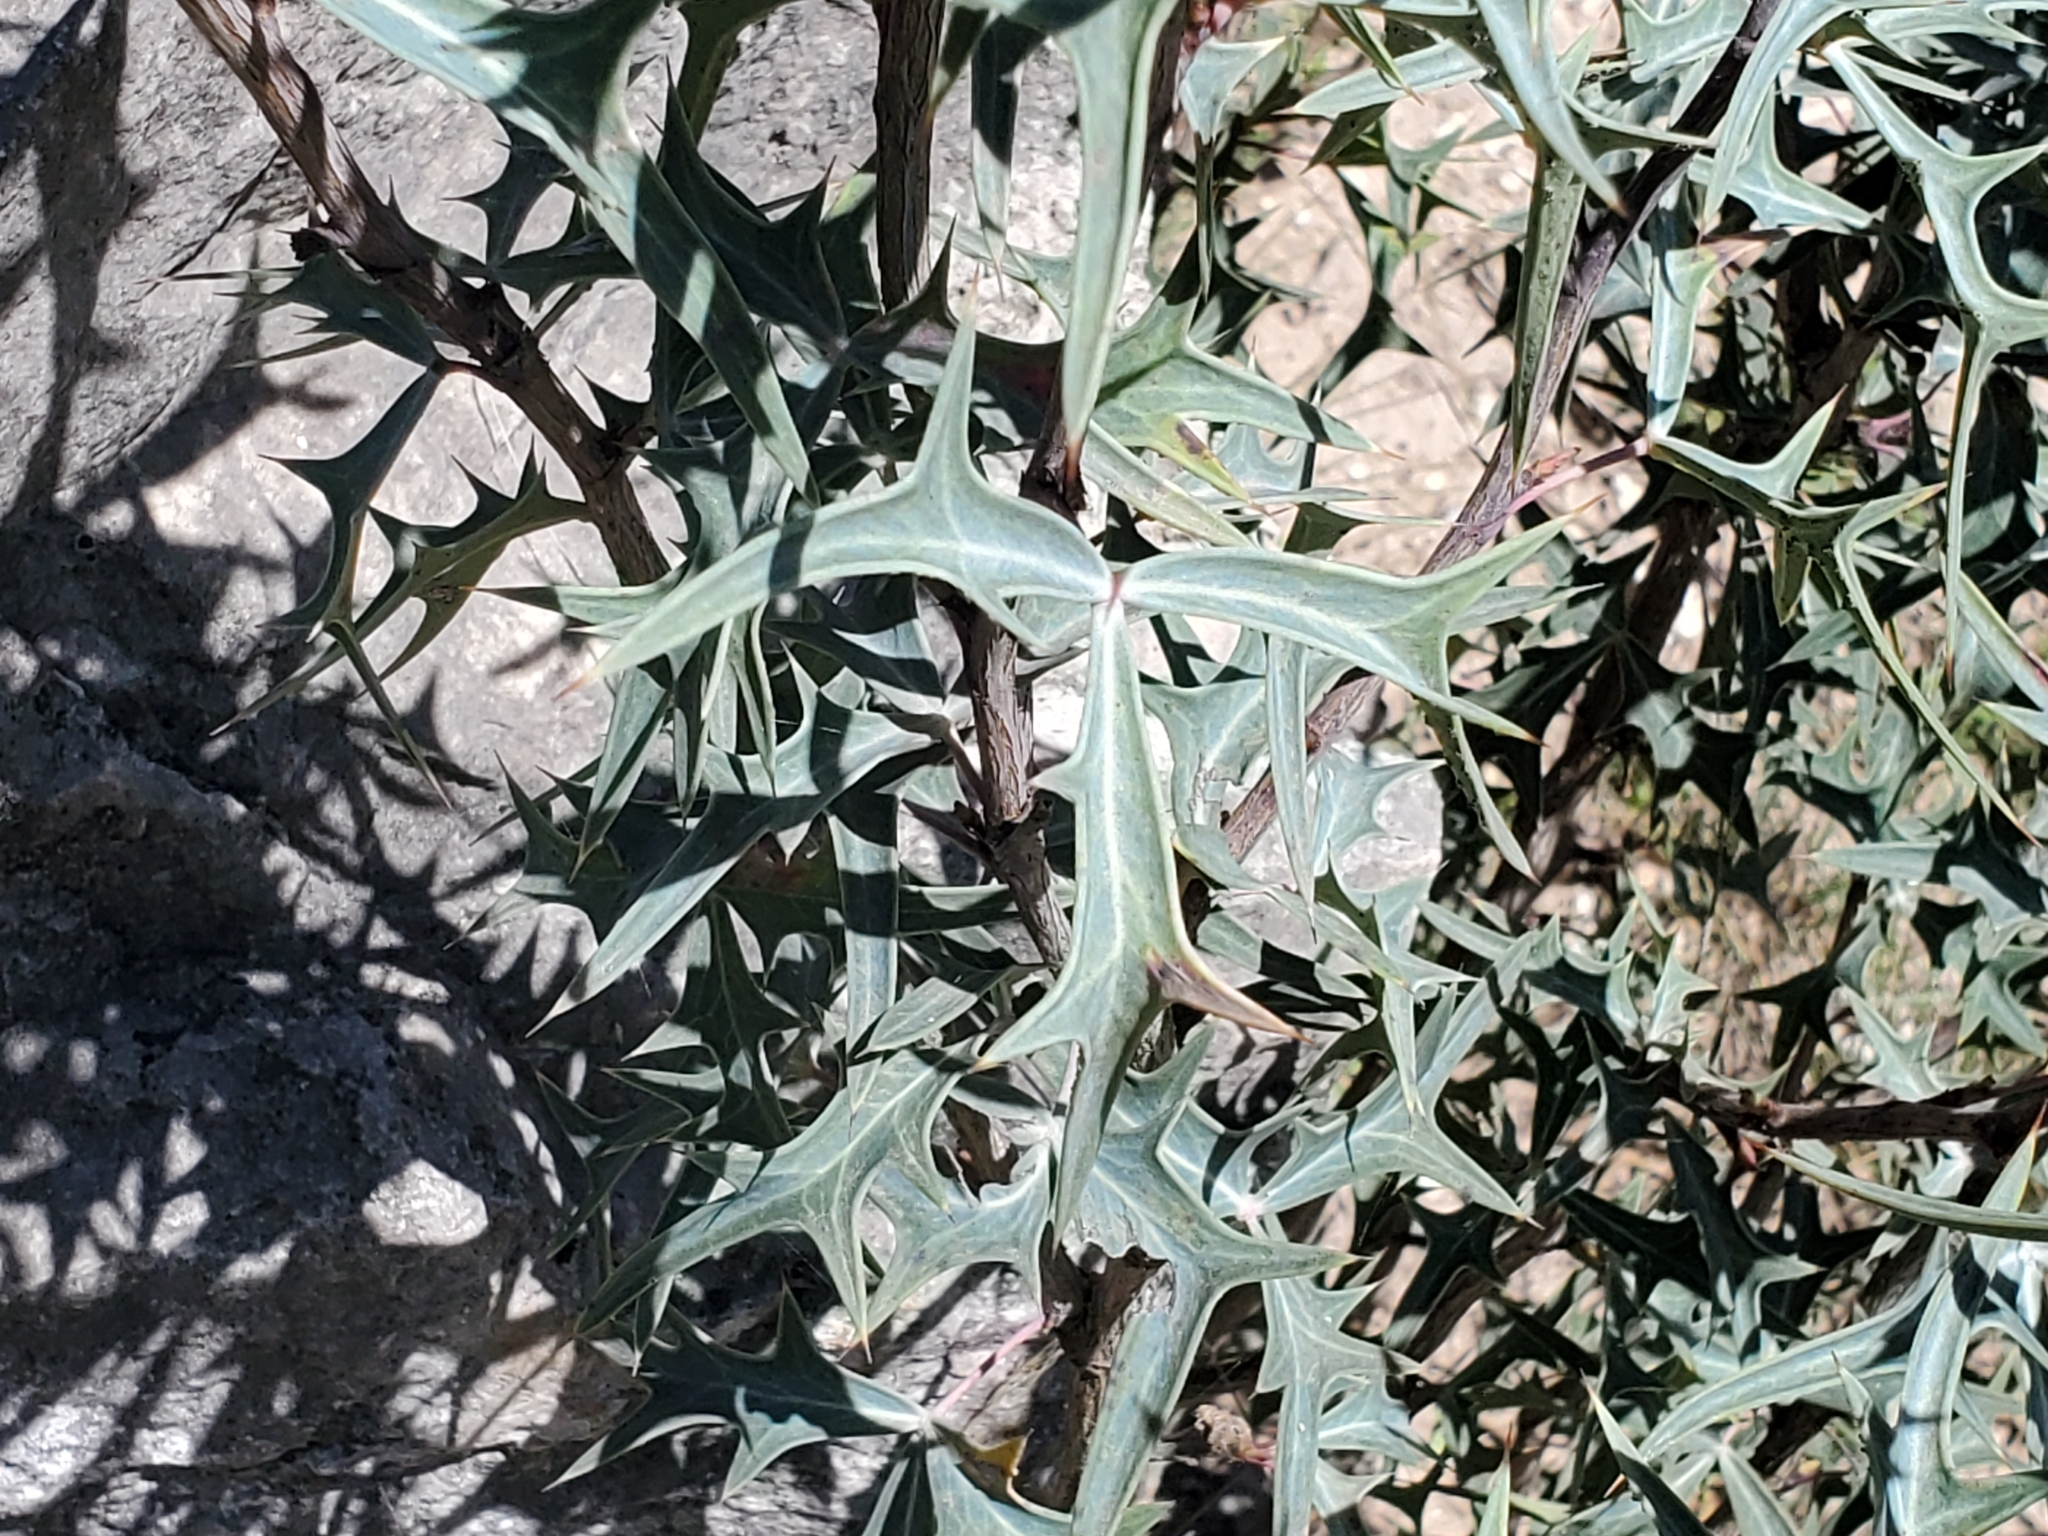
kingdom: Plantae
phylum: Tracheophyta
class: Magnoliopsida
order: Ranunculales
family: Berberidaceae
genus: Alloberberis
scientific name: Alloberberis trifoliolata
